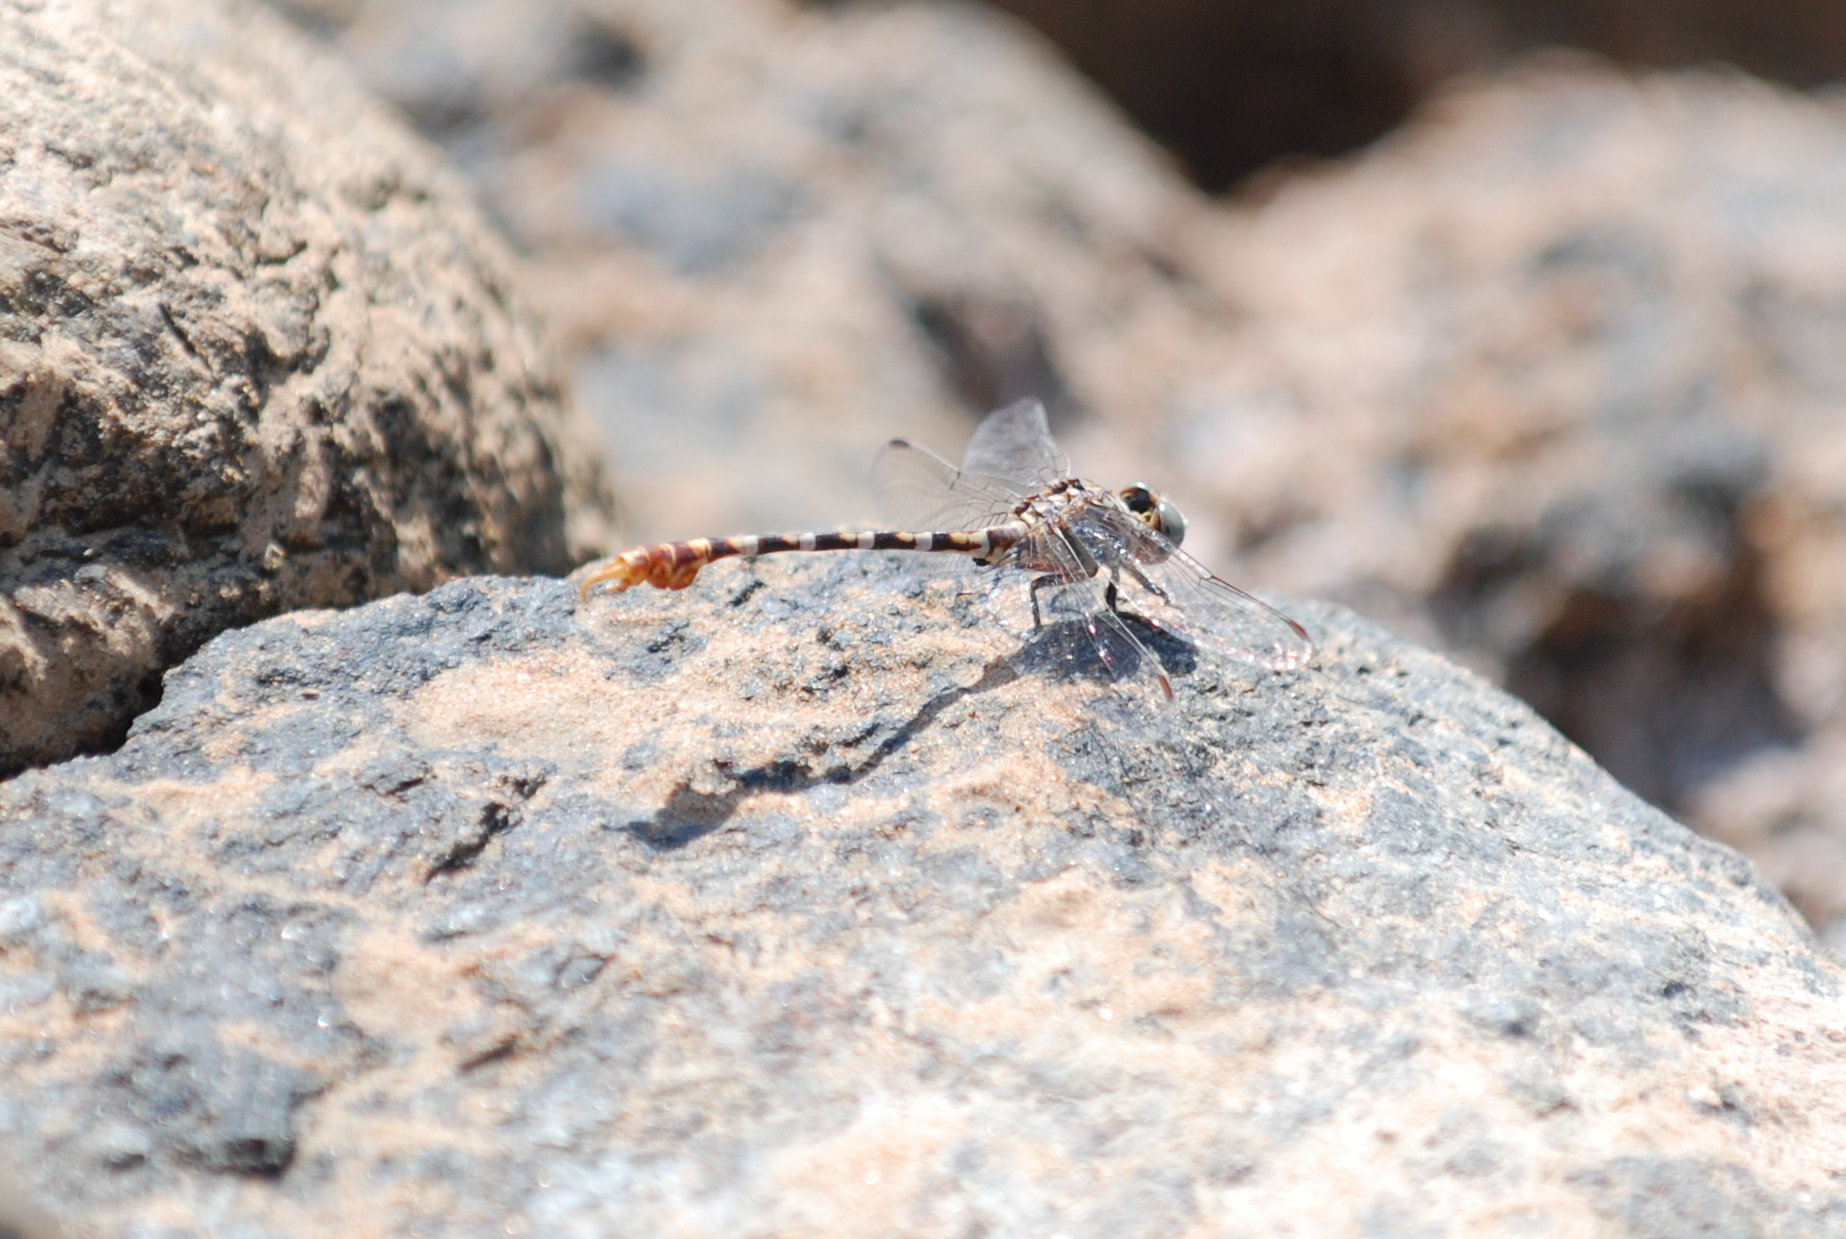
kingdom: Animalia
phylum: Arthropoda
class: Insecta
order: Odonata
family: Gomphidae
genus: Paragomphus
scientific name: Paragomphus sinaiticus
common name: Sinai hooktail
